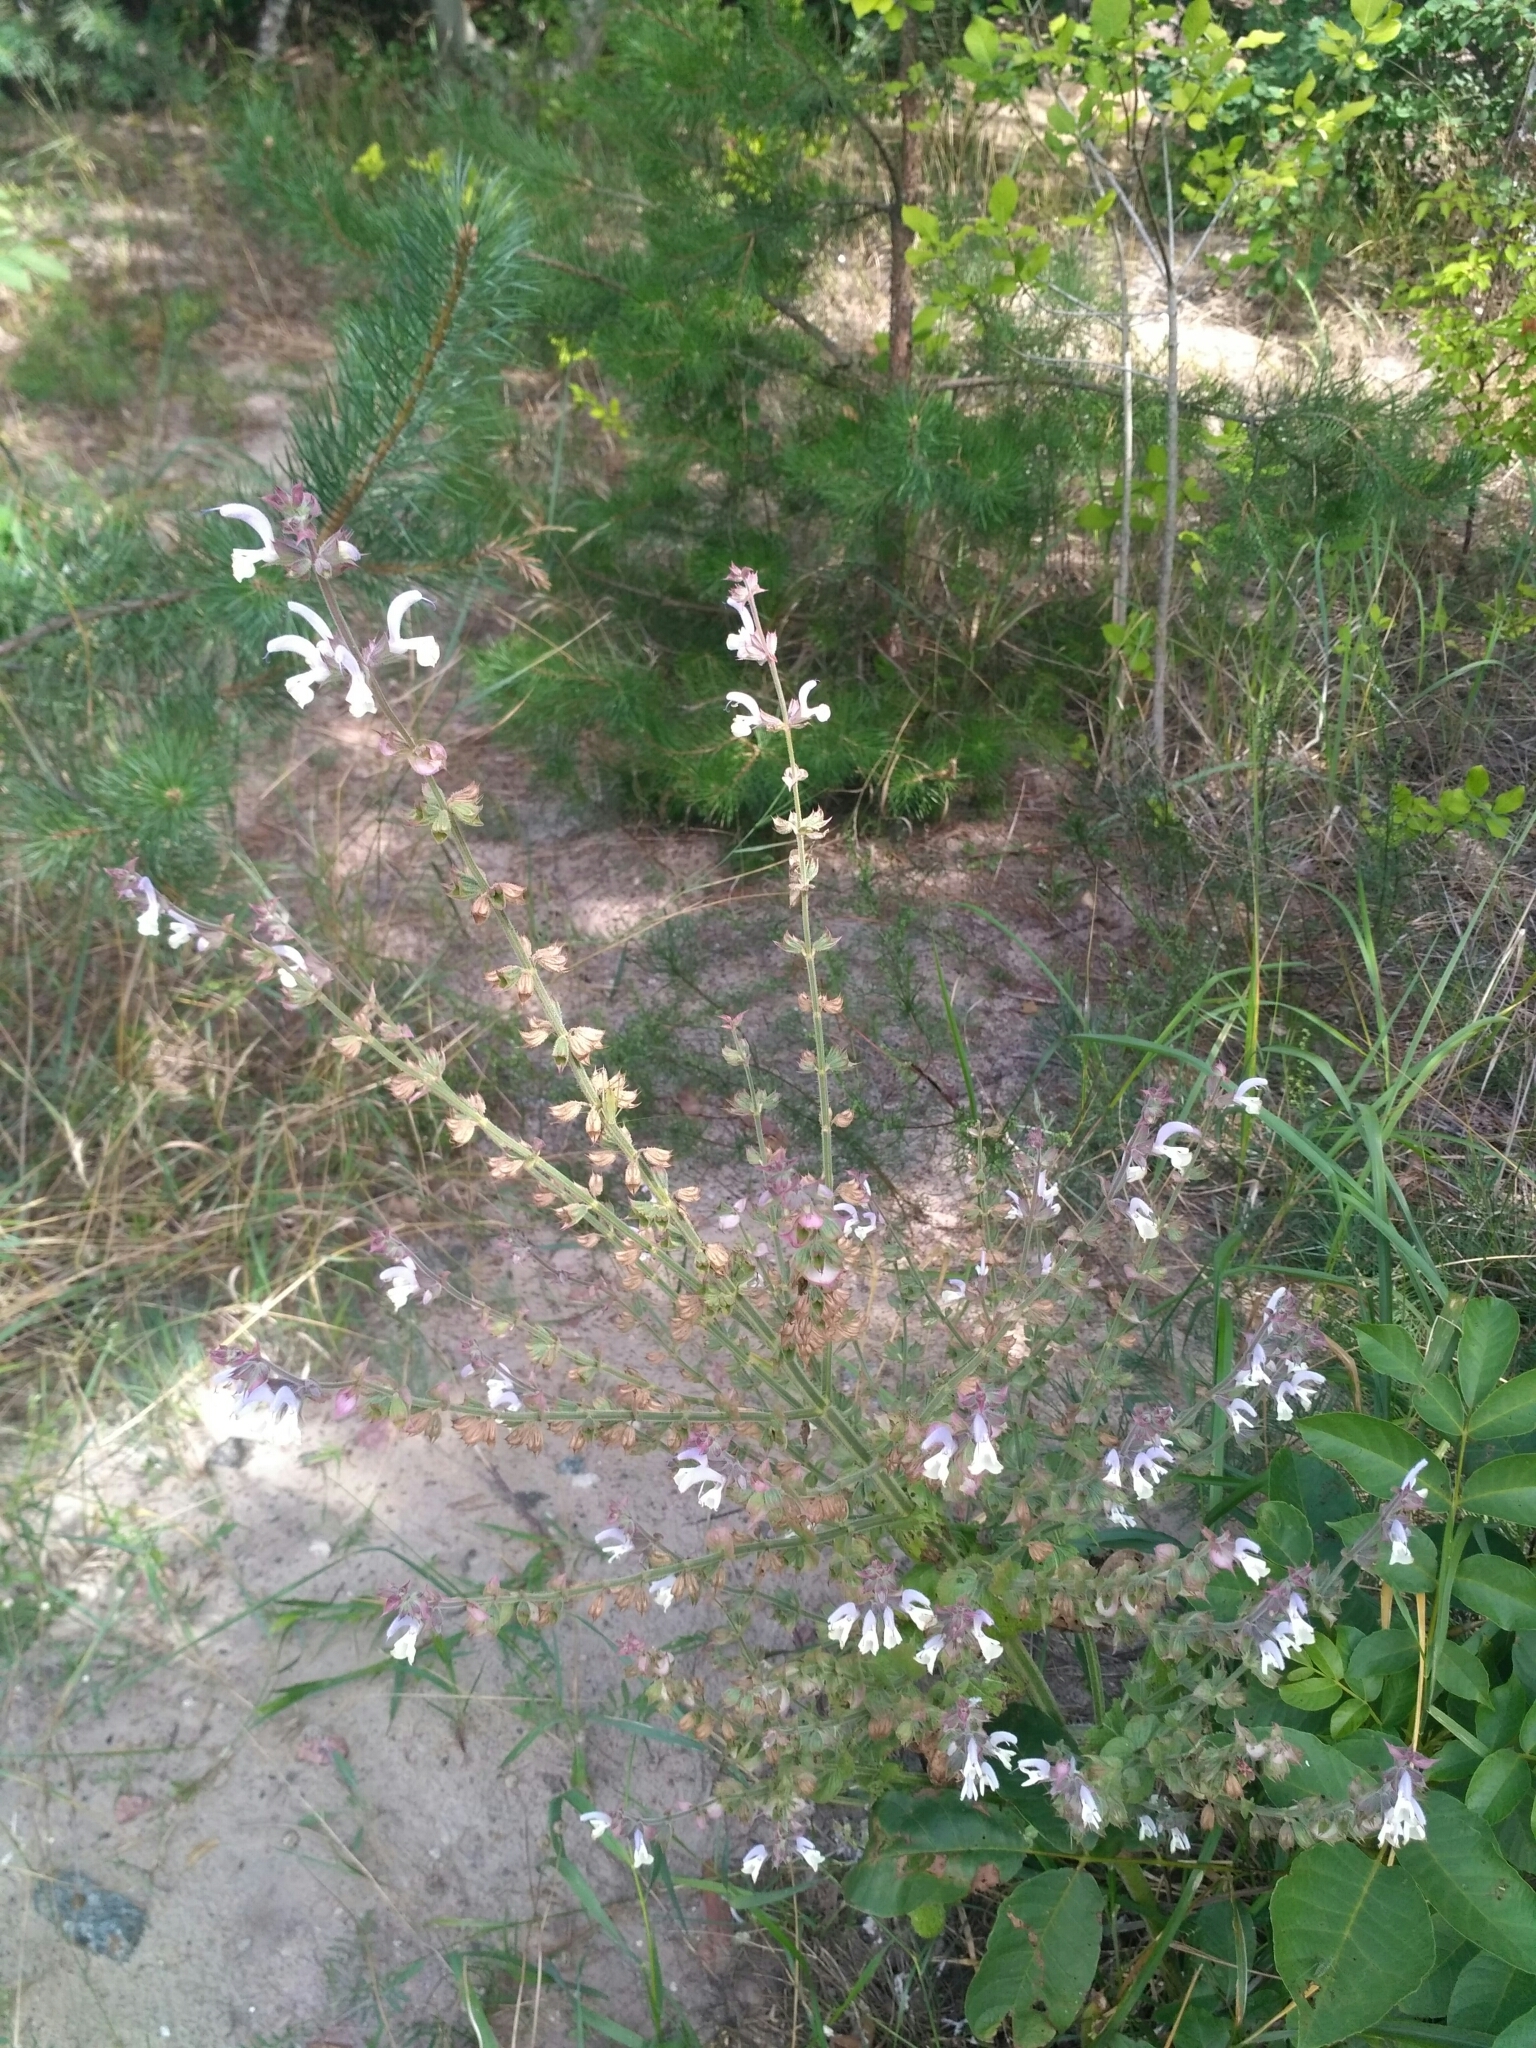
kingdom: Plantae
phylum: Tracheophyta
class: Magnoliopsida
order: Lamiales
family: Lamiaceae
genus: Salvia
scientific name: Salvia sclarea
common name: Clary
